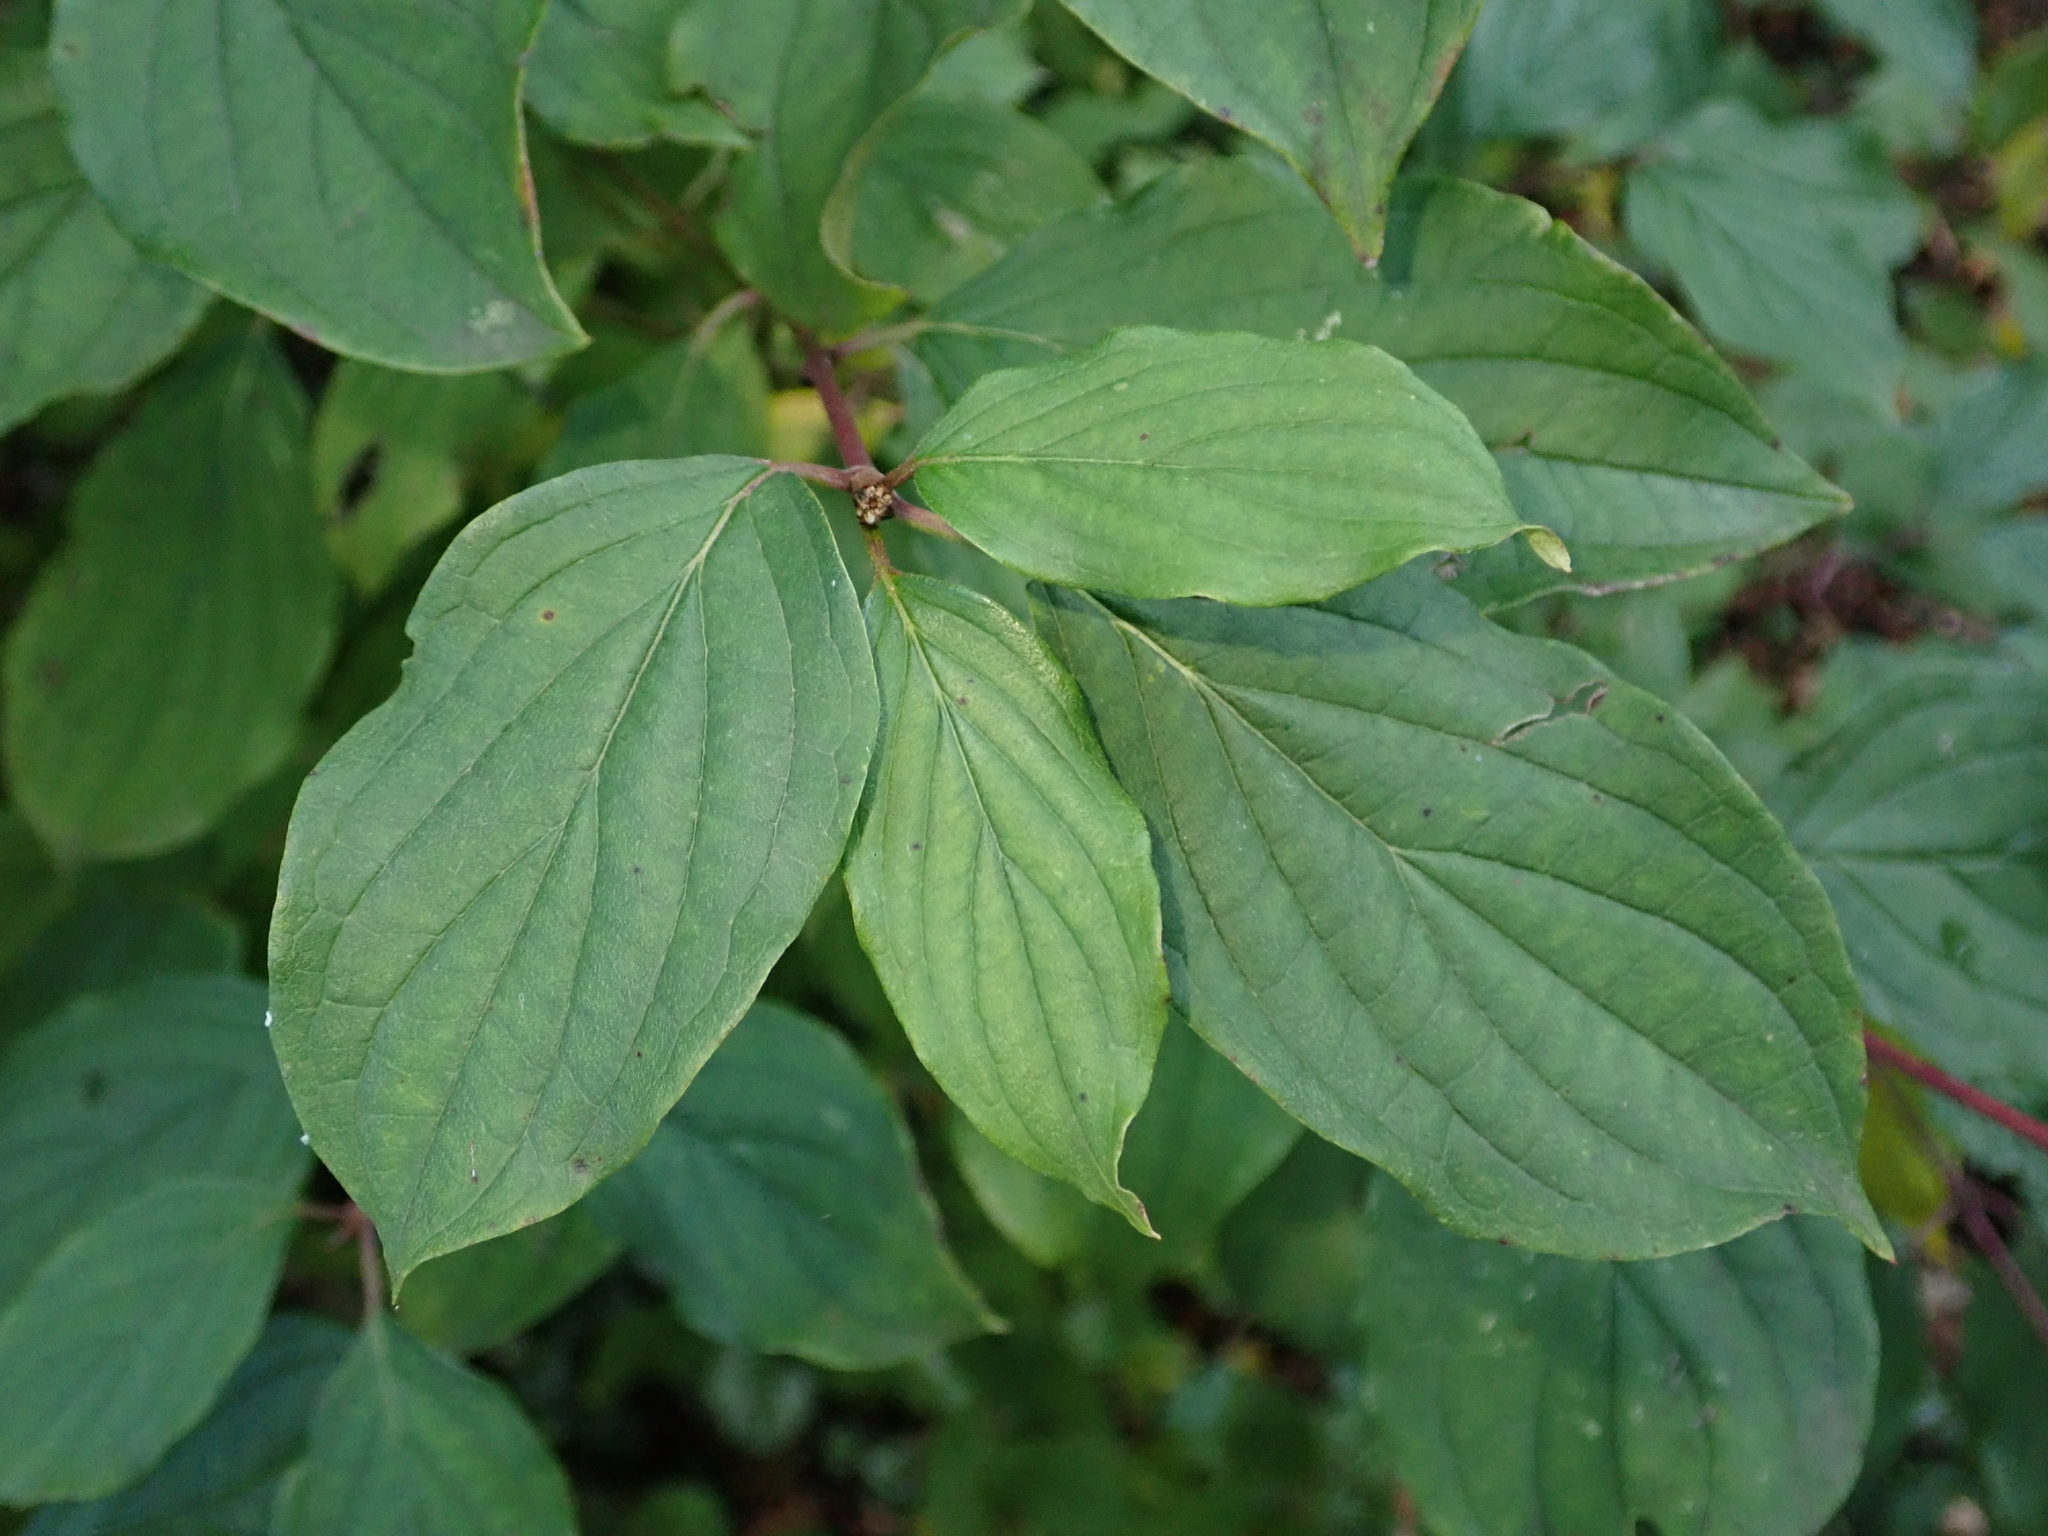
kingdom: Plantae
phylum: Tracheophyta
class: Magnoliopsida
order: Cornales
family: Cornaceae
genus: Cornus
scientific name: Cornus sanguinea
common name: Dogwood
